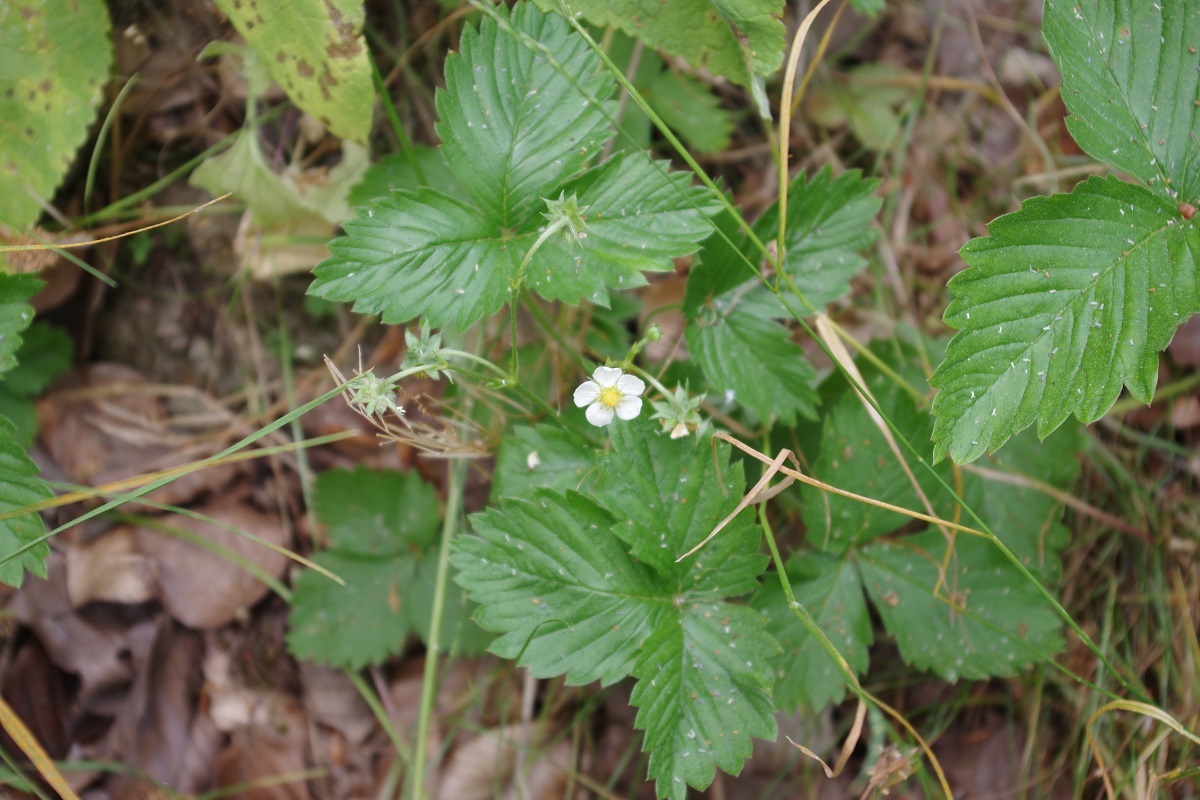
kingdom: Plantae
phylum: Tracheophyta
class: Magnoliopsida
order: Rosales
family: Rosaceae
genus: Fragaria
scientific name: Fragaria vesca
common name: Wild strawberry
